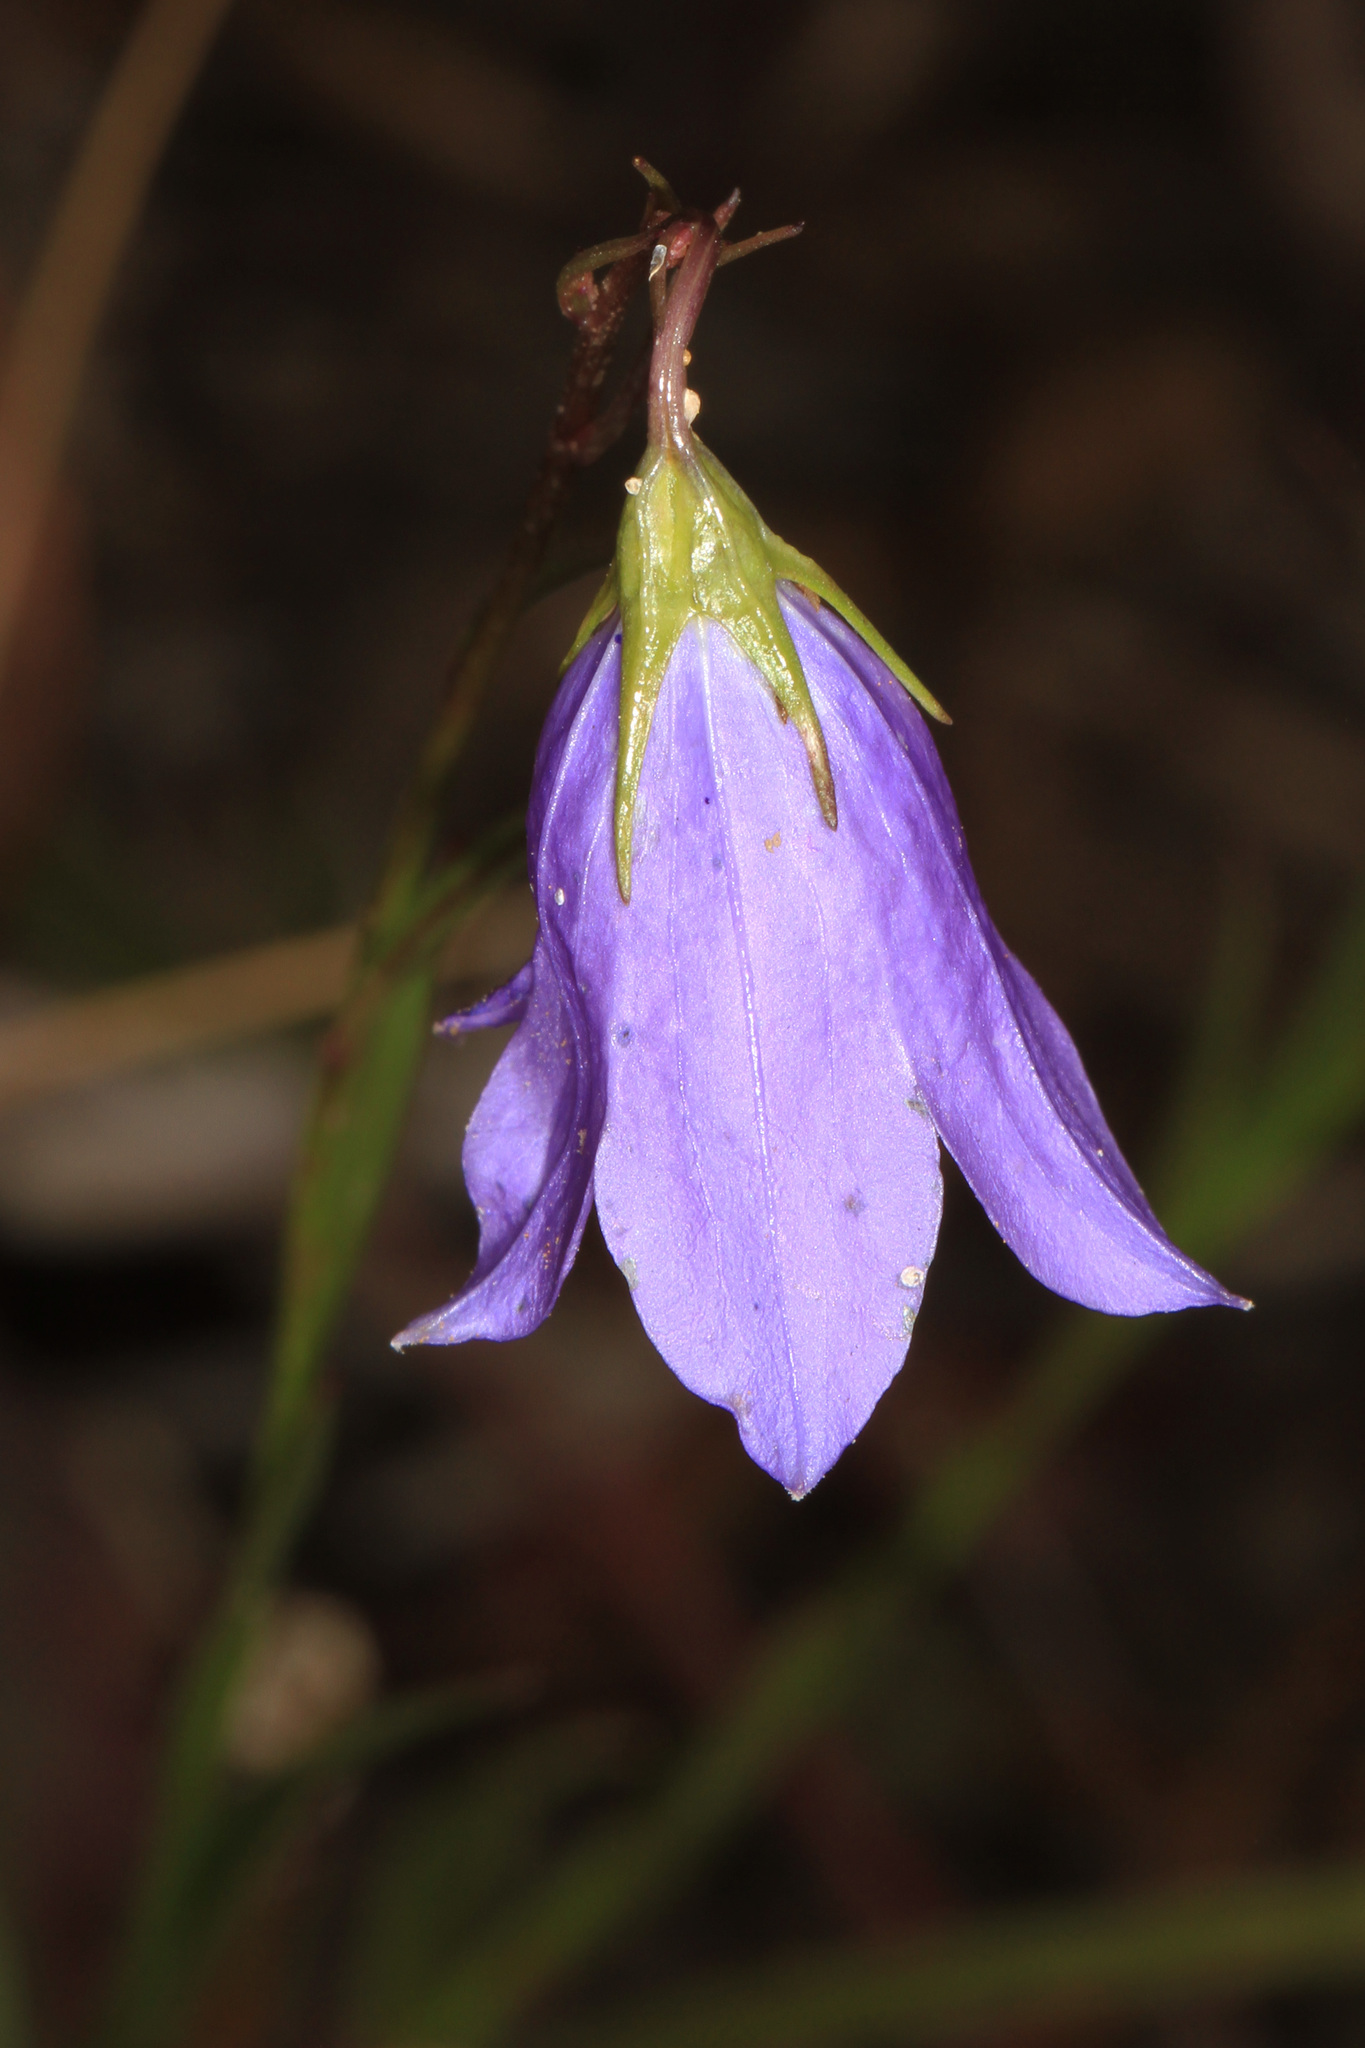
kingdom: Plantae
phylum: Tracheophyta
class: Magnoliopsida
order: Asterales
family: Campanulaceae
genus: Campanula
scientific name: Campanula alaskana
